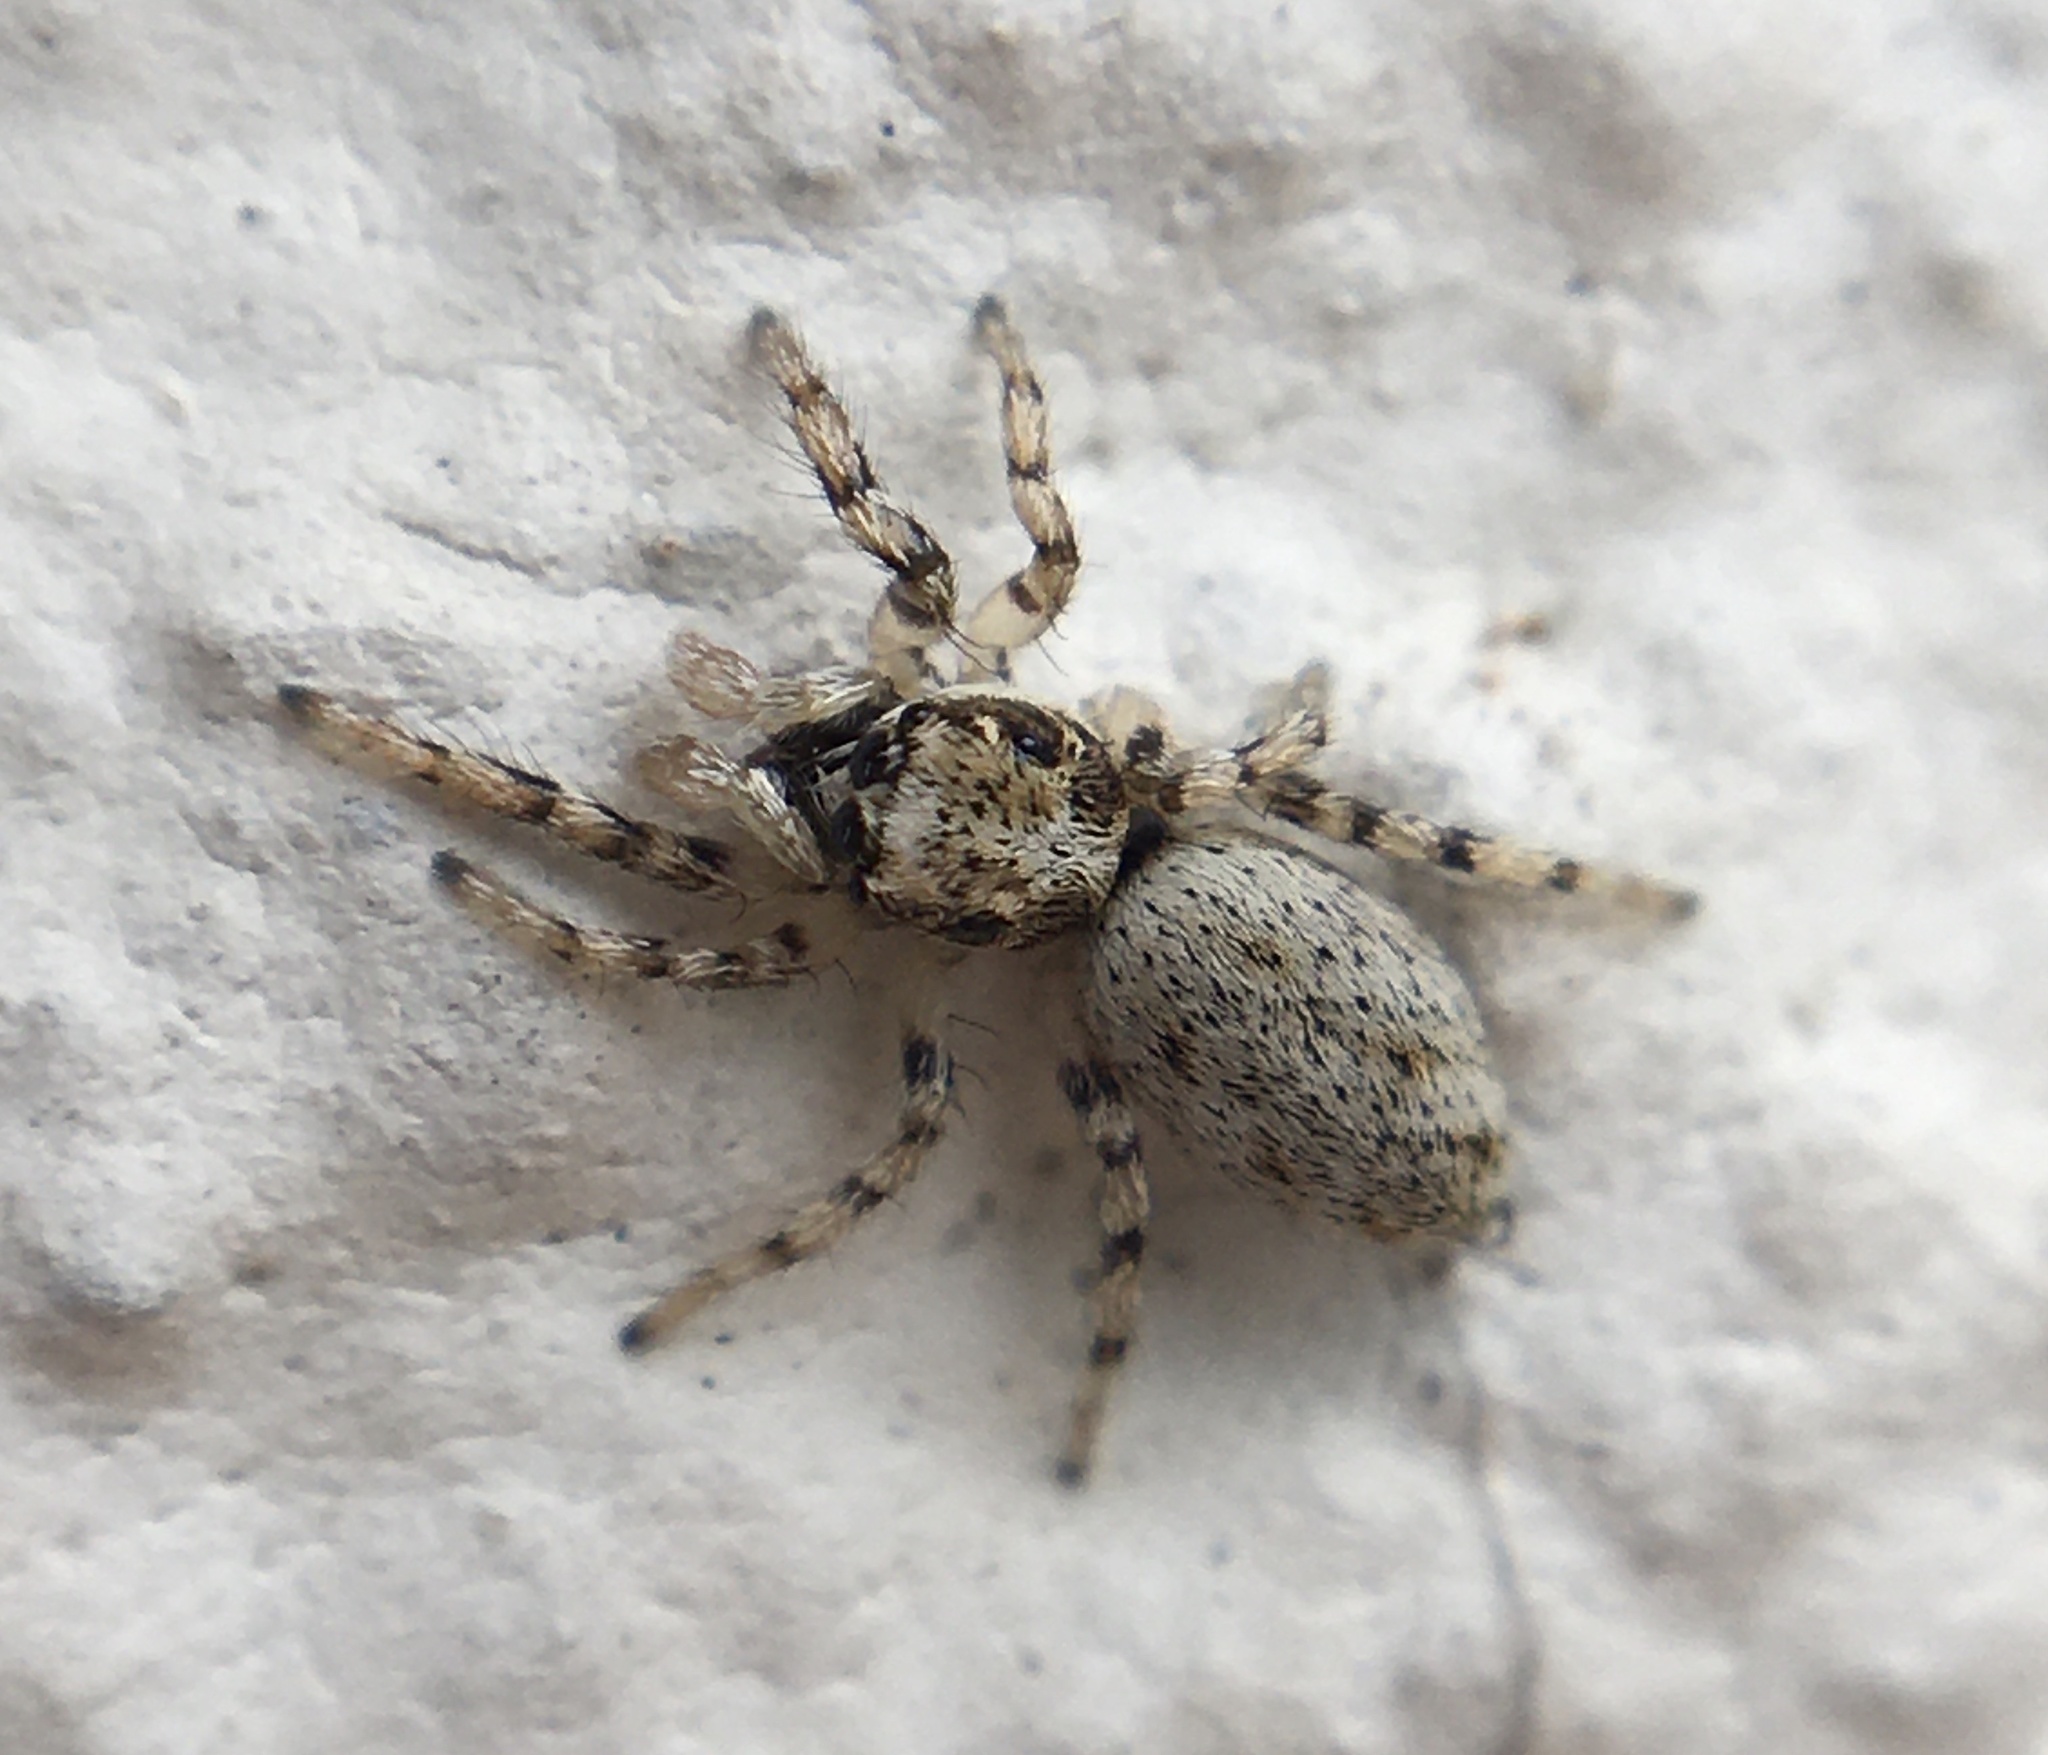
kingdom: Animalia
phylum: Arthropoda
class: Arachnida
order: Araneae
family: Salticidae
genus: Salticus
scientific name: Salticus mutabilis
